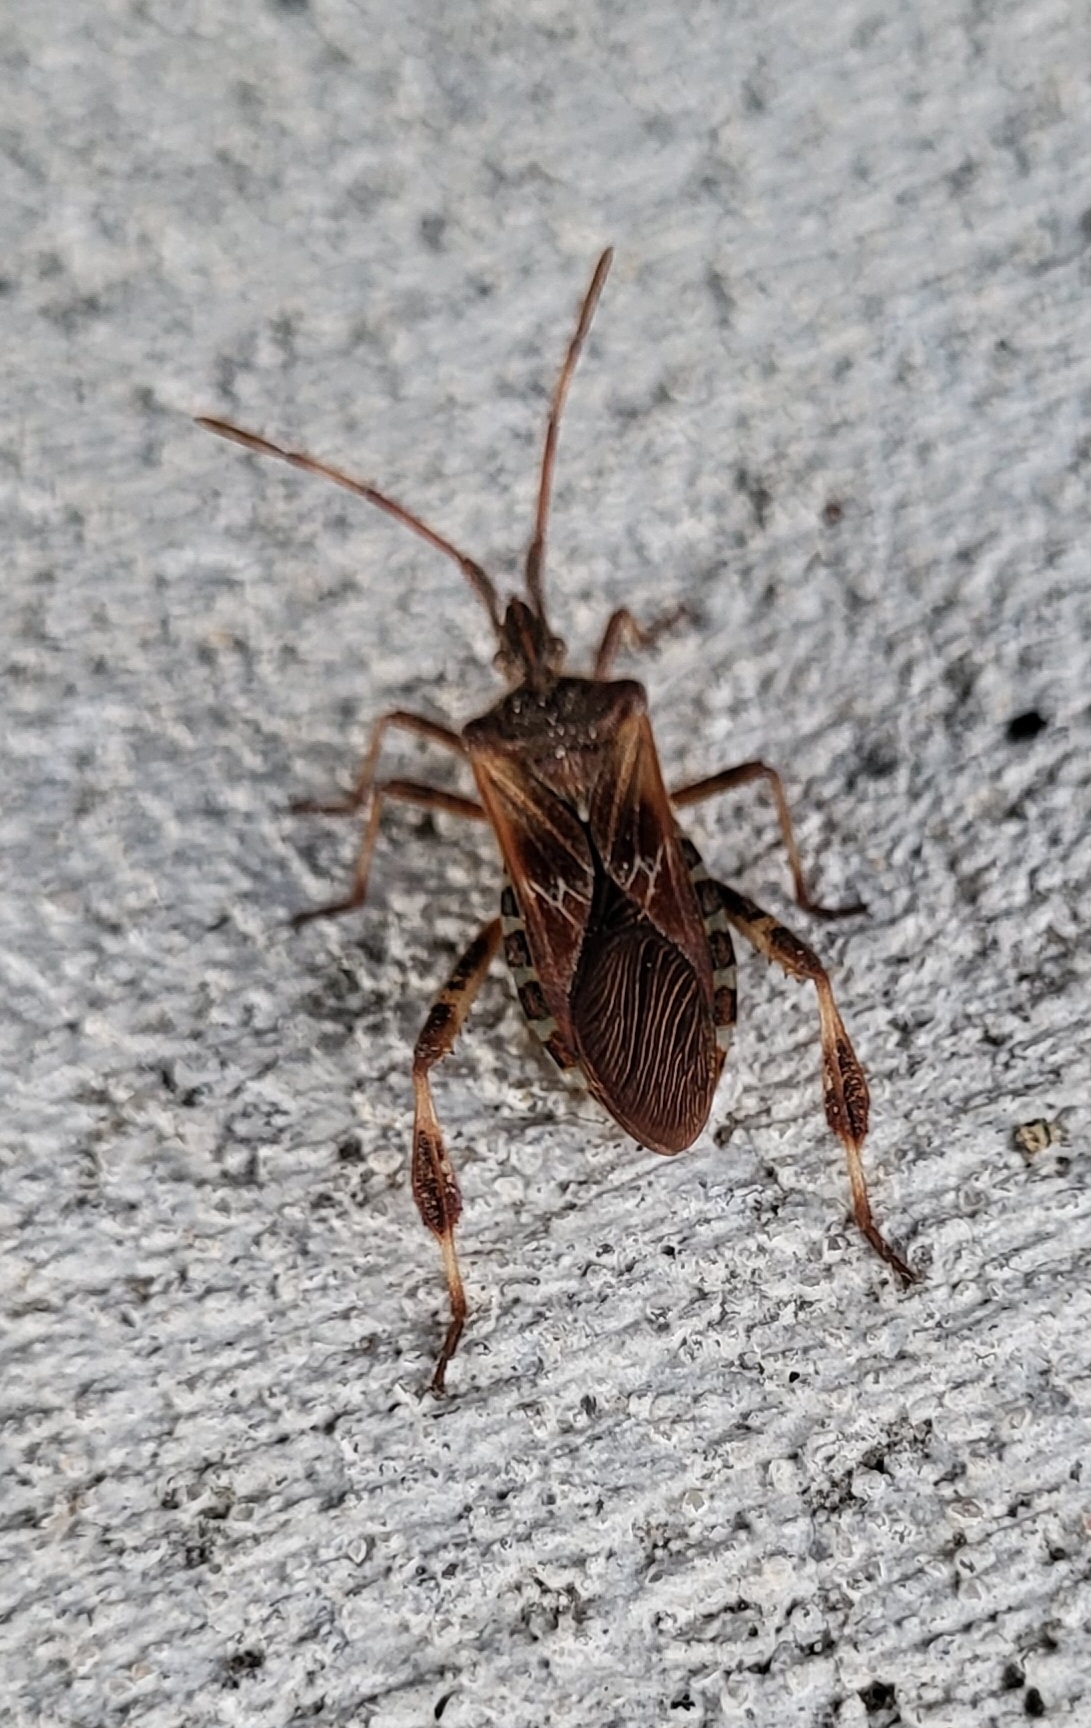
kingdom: Animalia
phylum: Arthropoda
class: Insecta
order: Hemiptera
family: Coreidae
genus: Leptoglossus
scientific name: Leptoglossus occidentalis
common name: Western conifer-seed bug
